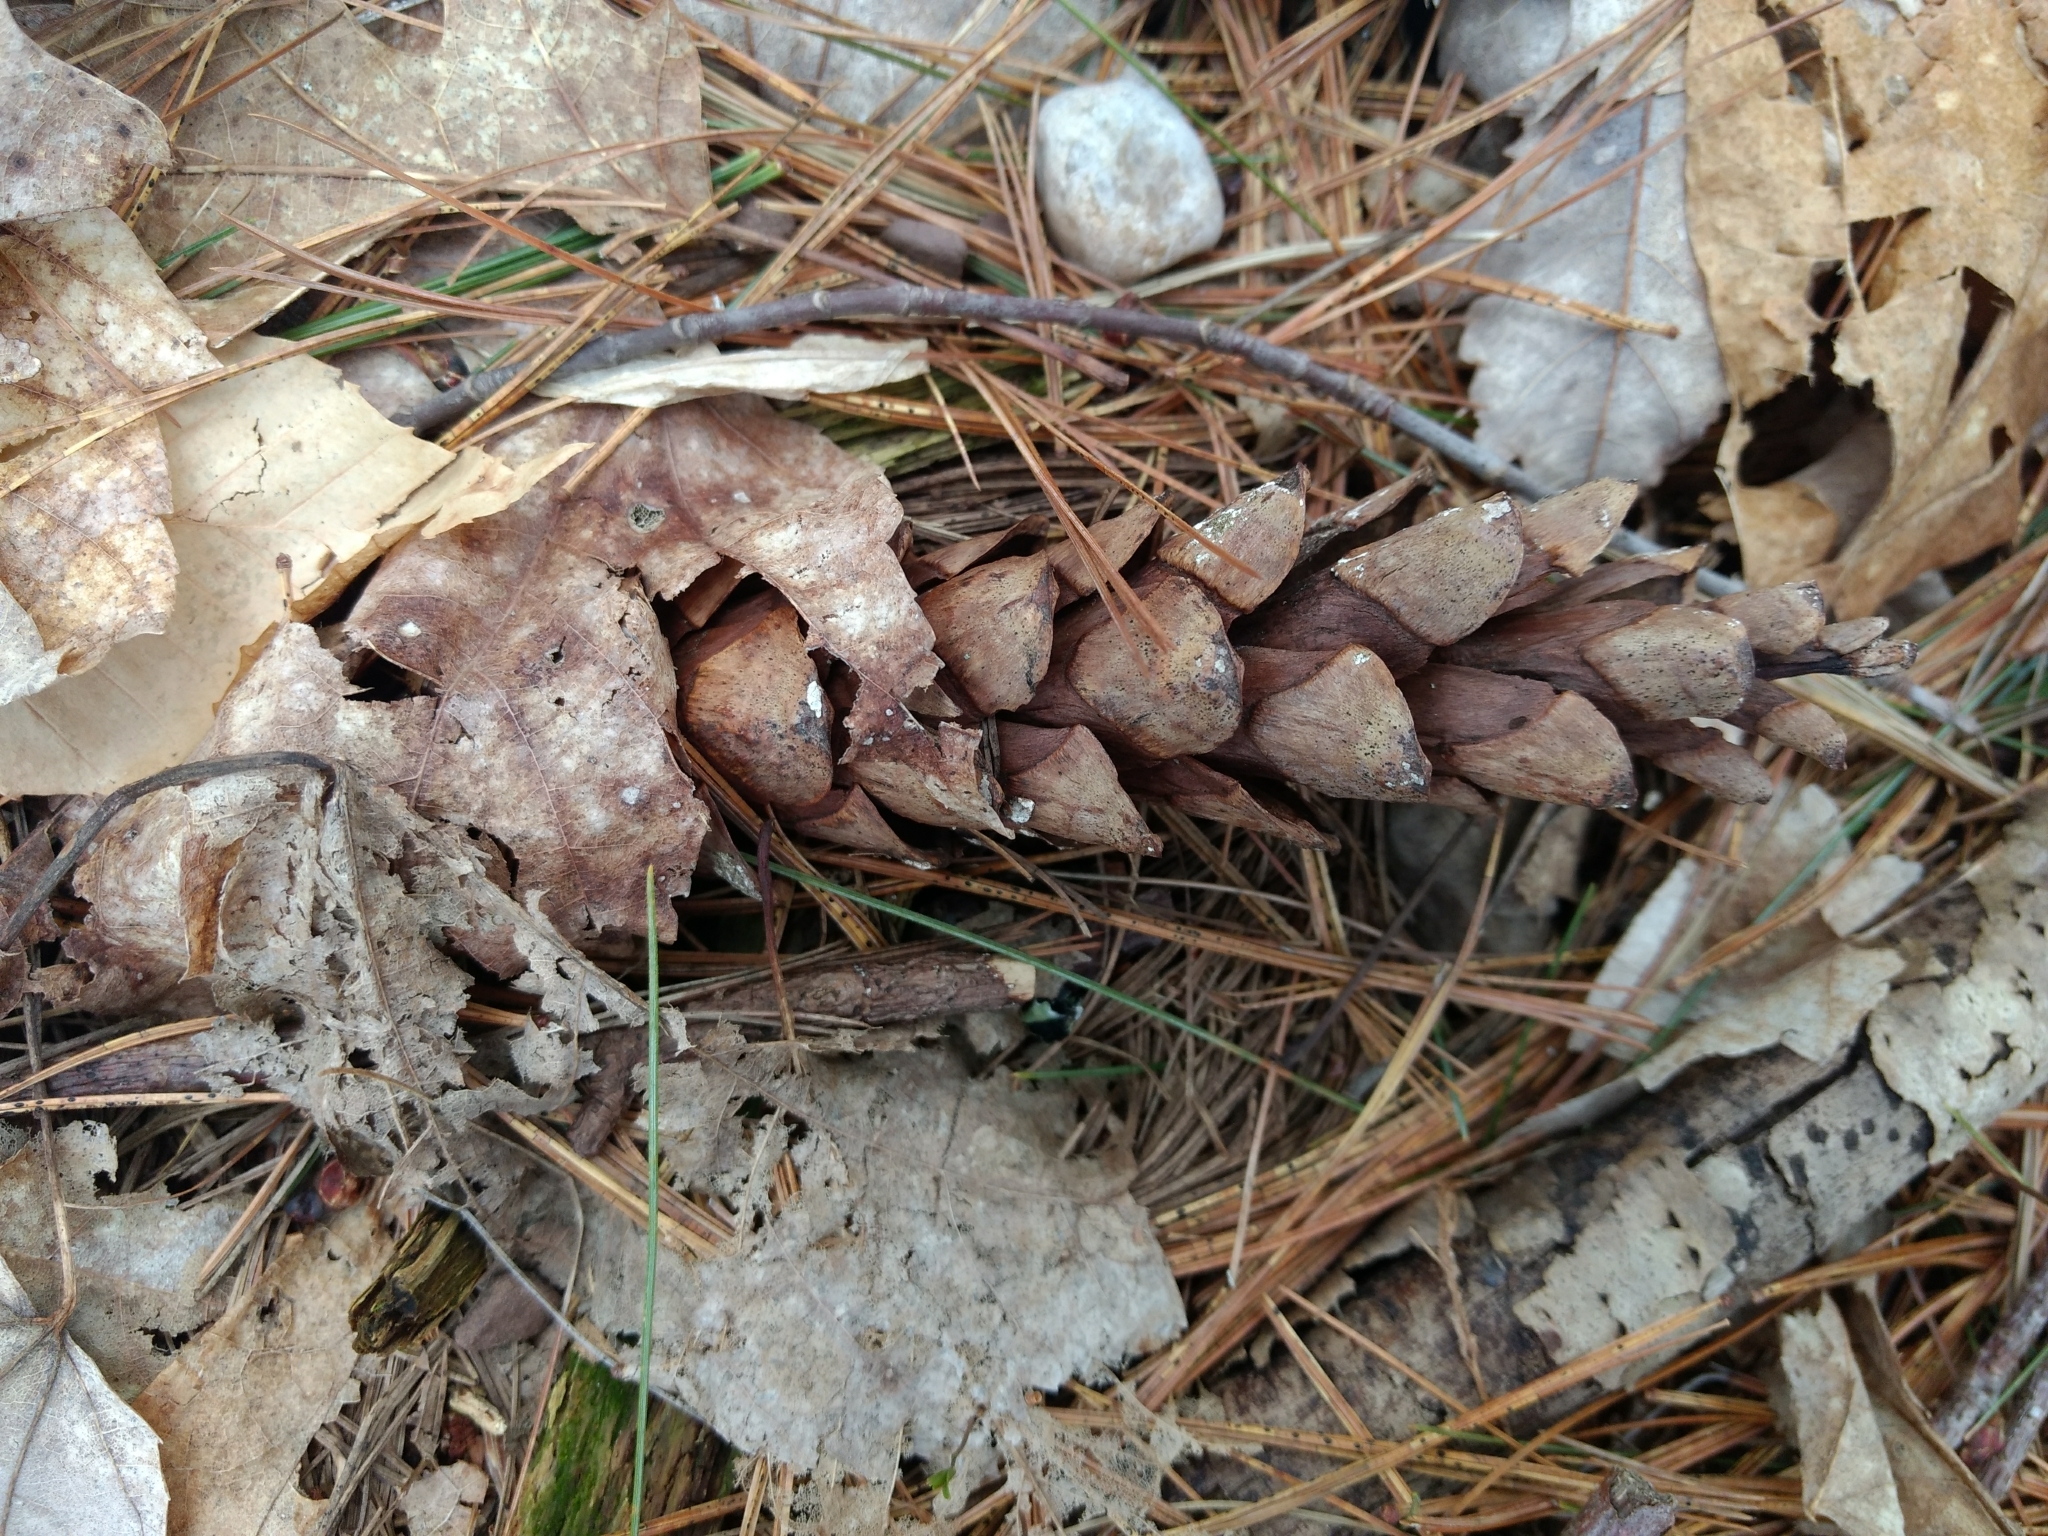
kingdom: Plantae
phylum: Tracheophyta
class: Pinopsida
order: Pinales
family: Pinaceae
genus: Pinus
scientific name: Pinus strobus
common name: Weymouth pine
